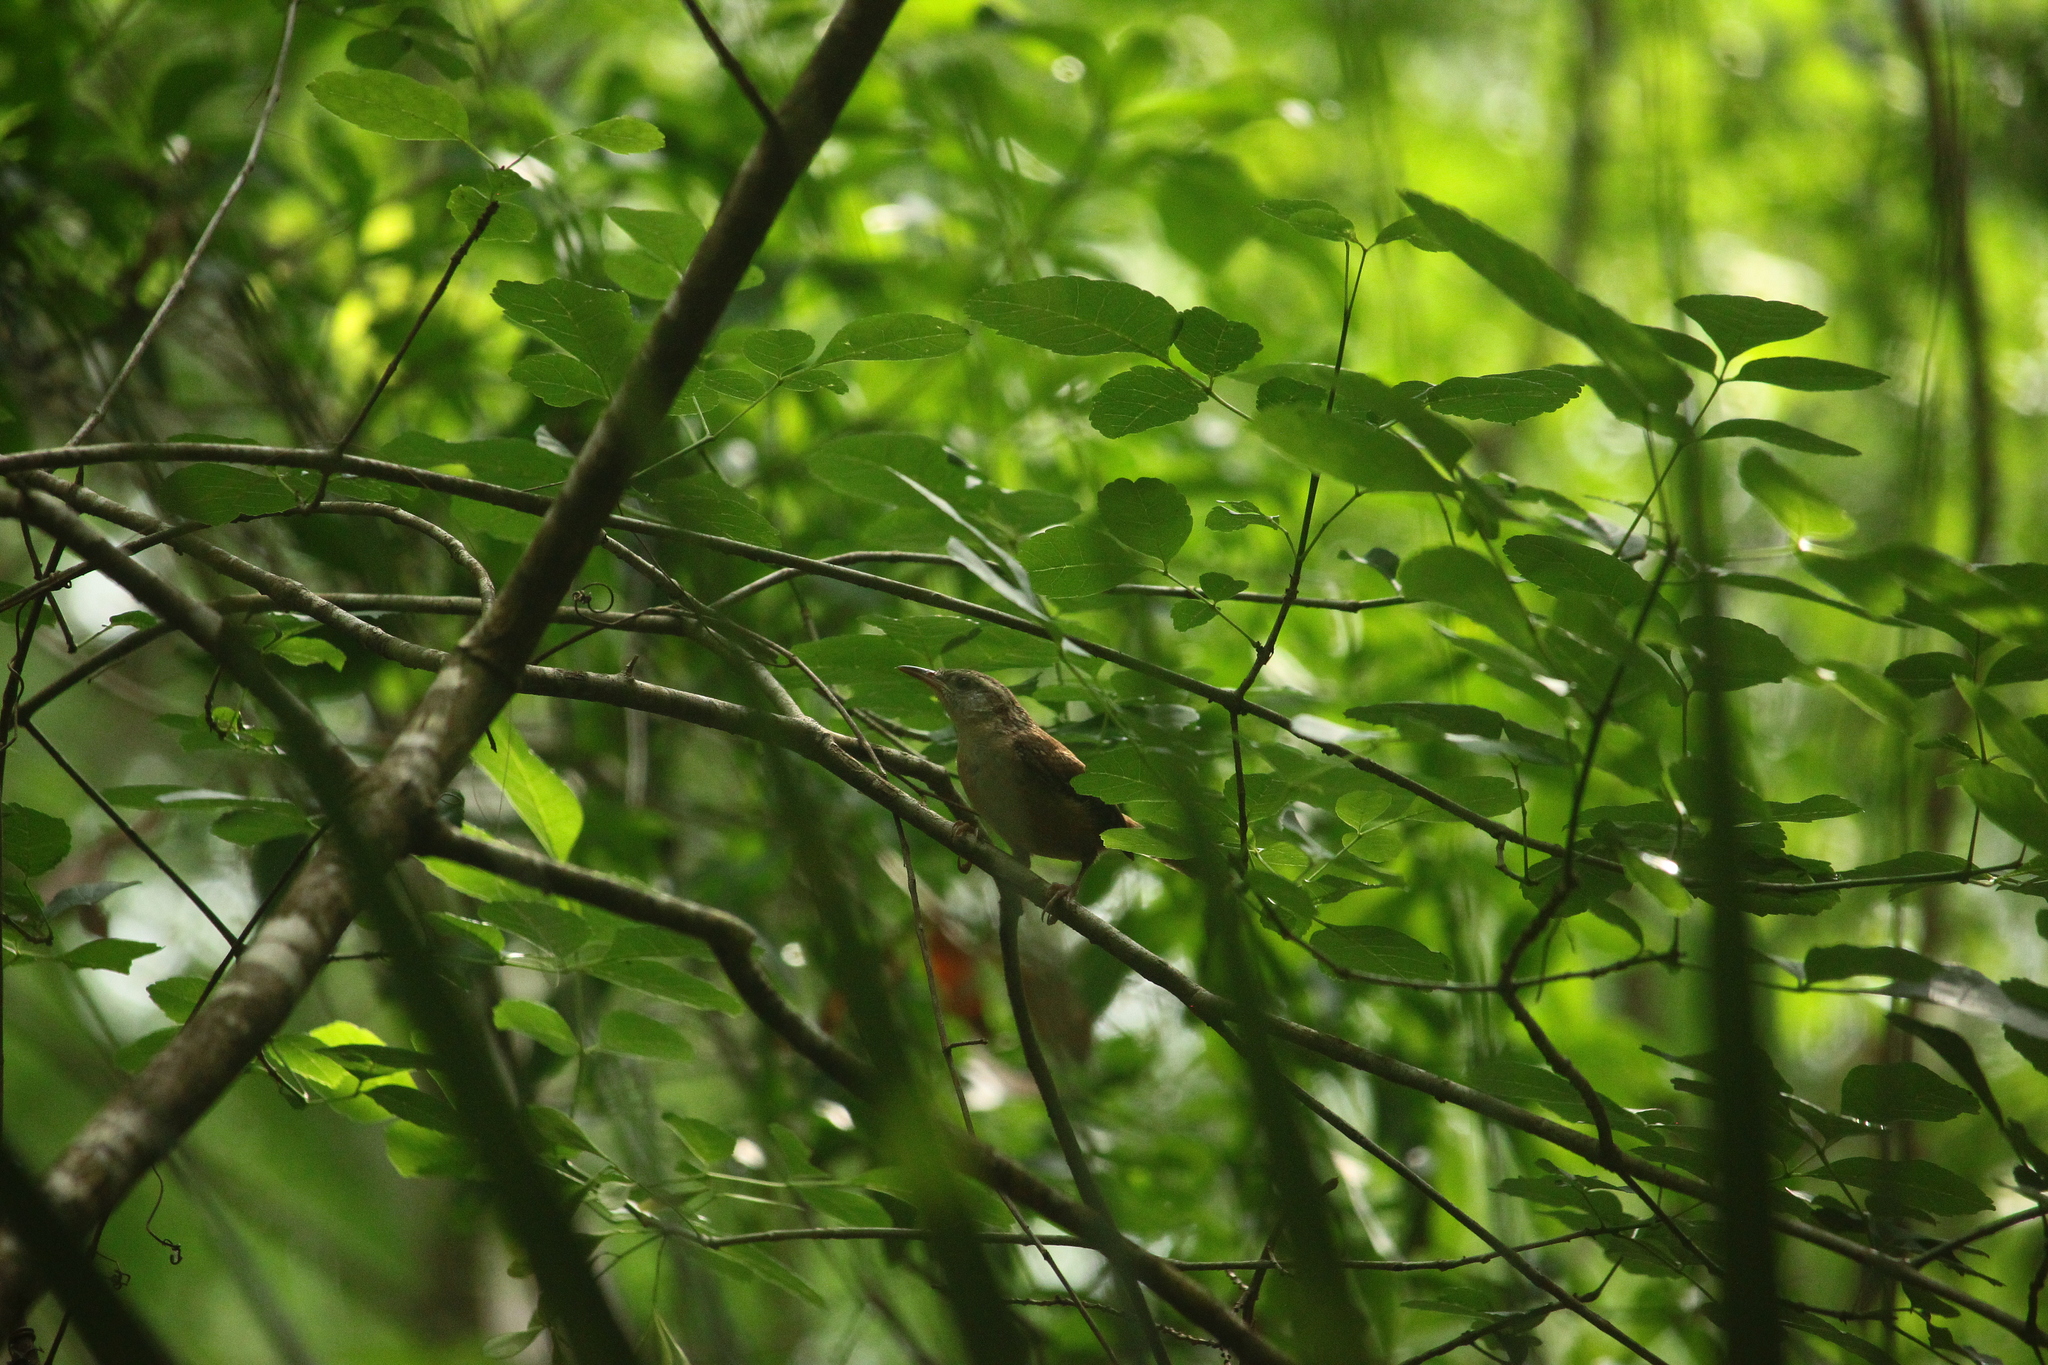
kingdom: Animalia
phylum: Chordata
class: Aves
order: Passeriformes
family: Troglodytidae
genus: Thryothorus
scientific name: Thryothorus ludovicianus
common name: Carolina wren
